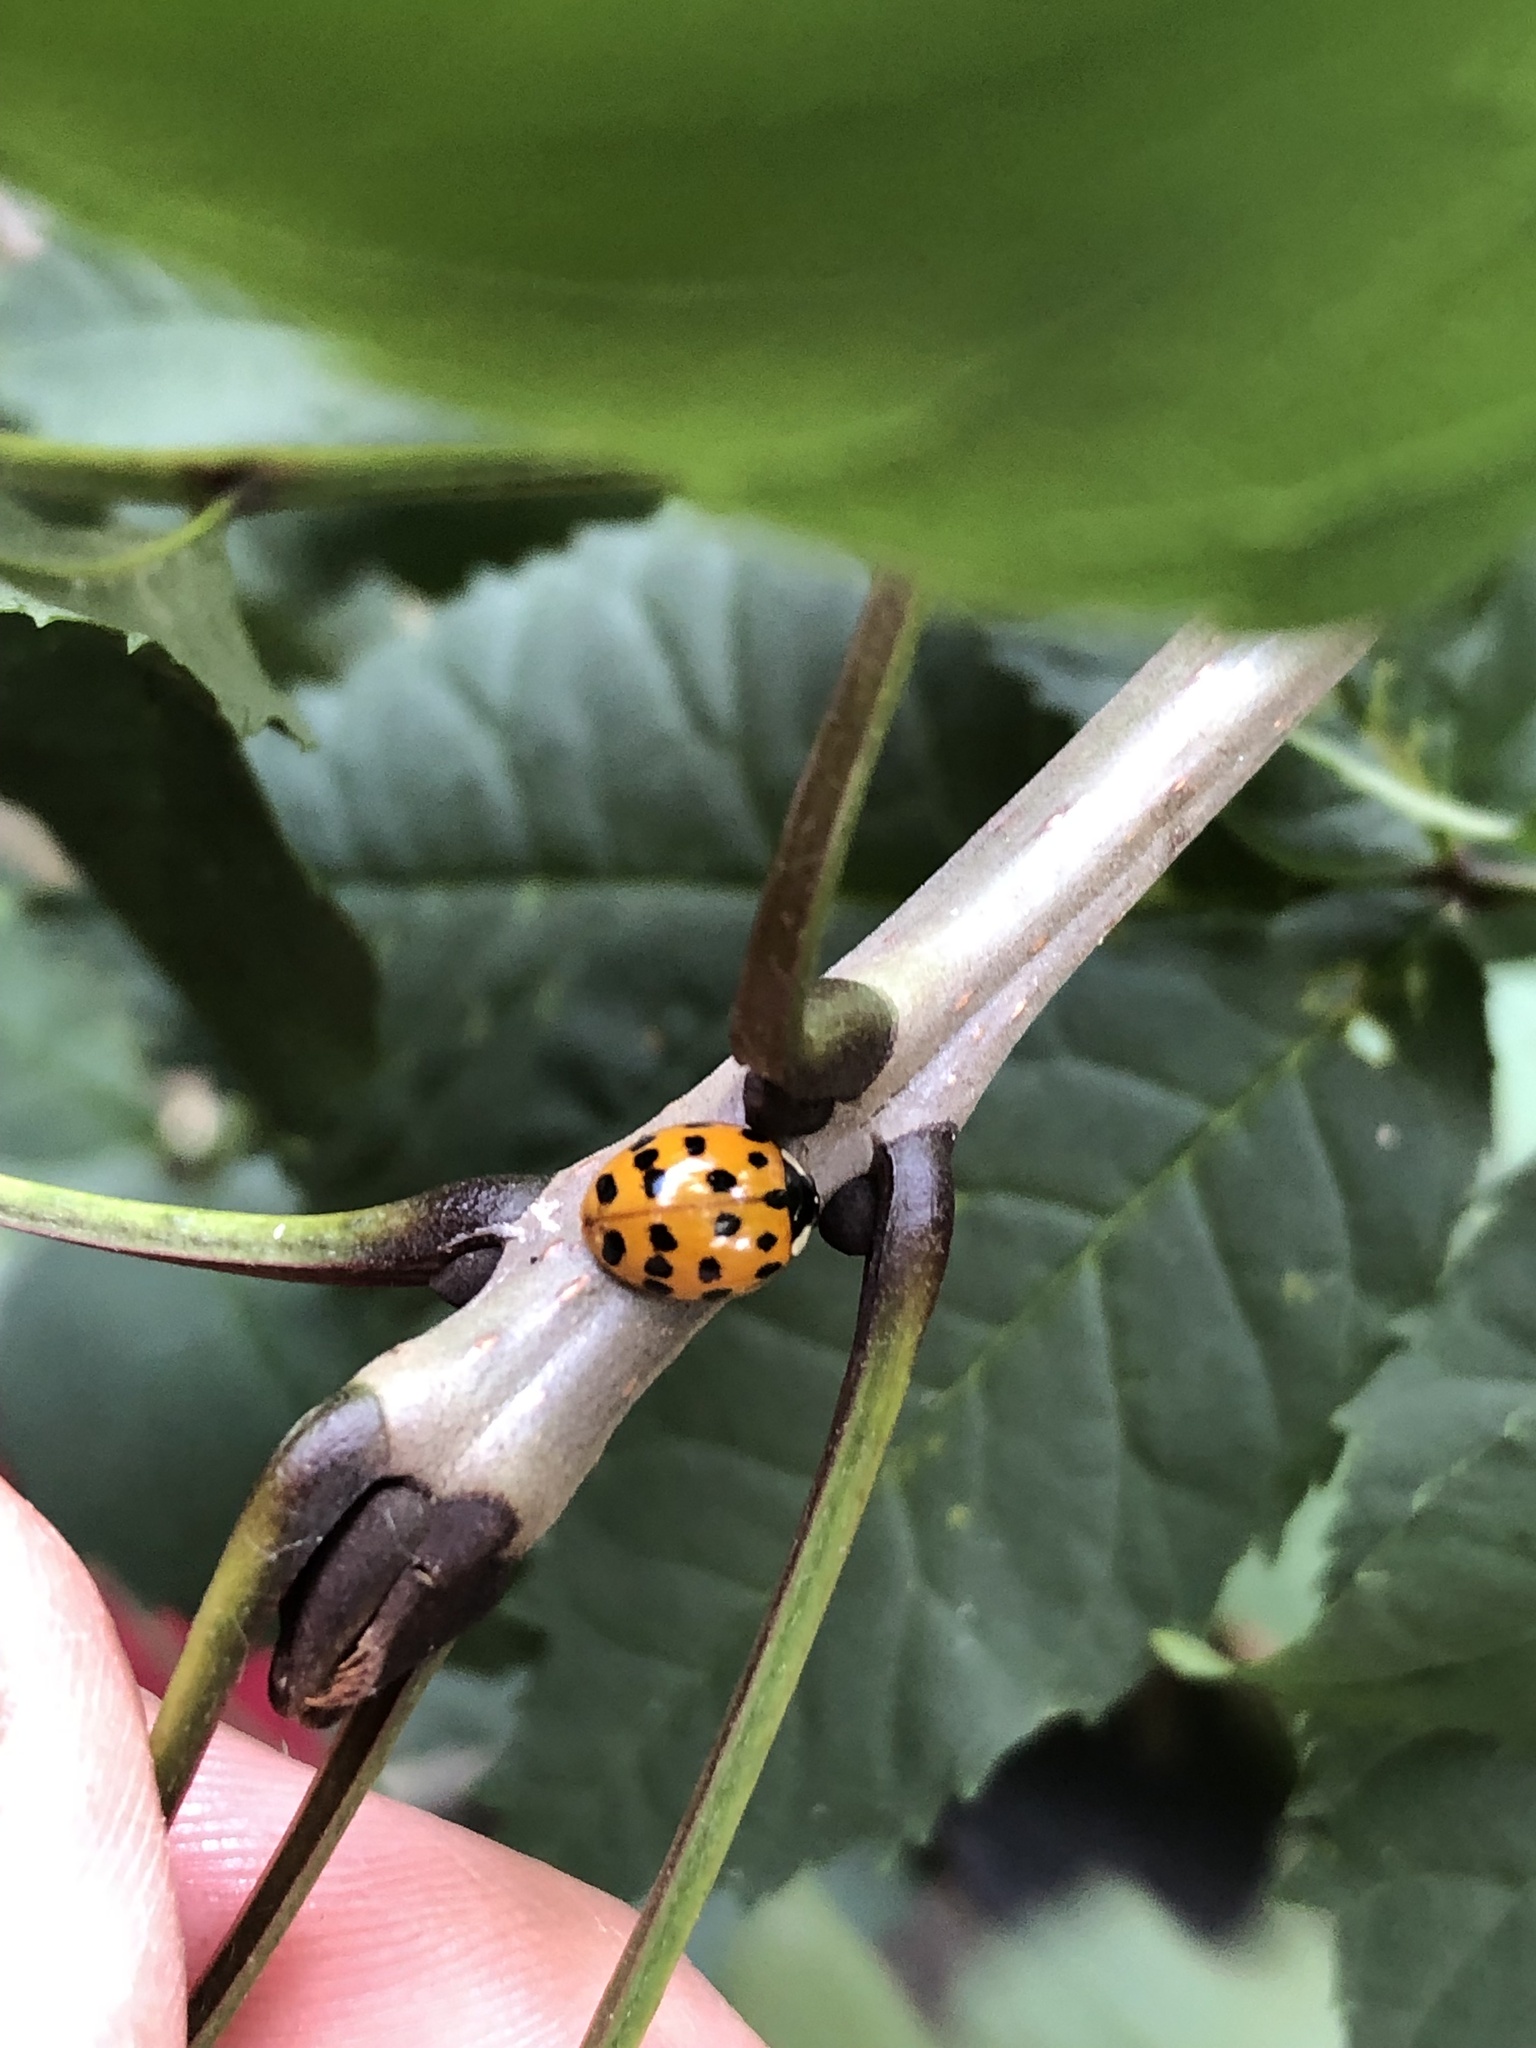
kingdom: Animalia
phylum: Arthropoda
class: Insecta
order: Coleoptera
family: Coccinellidae
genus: Harmonia
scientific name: Harmonia axyridis
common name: Harlequin ladybird
